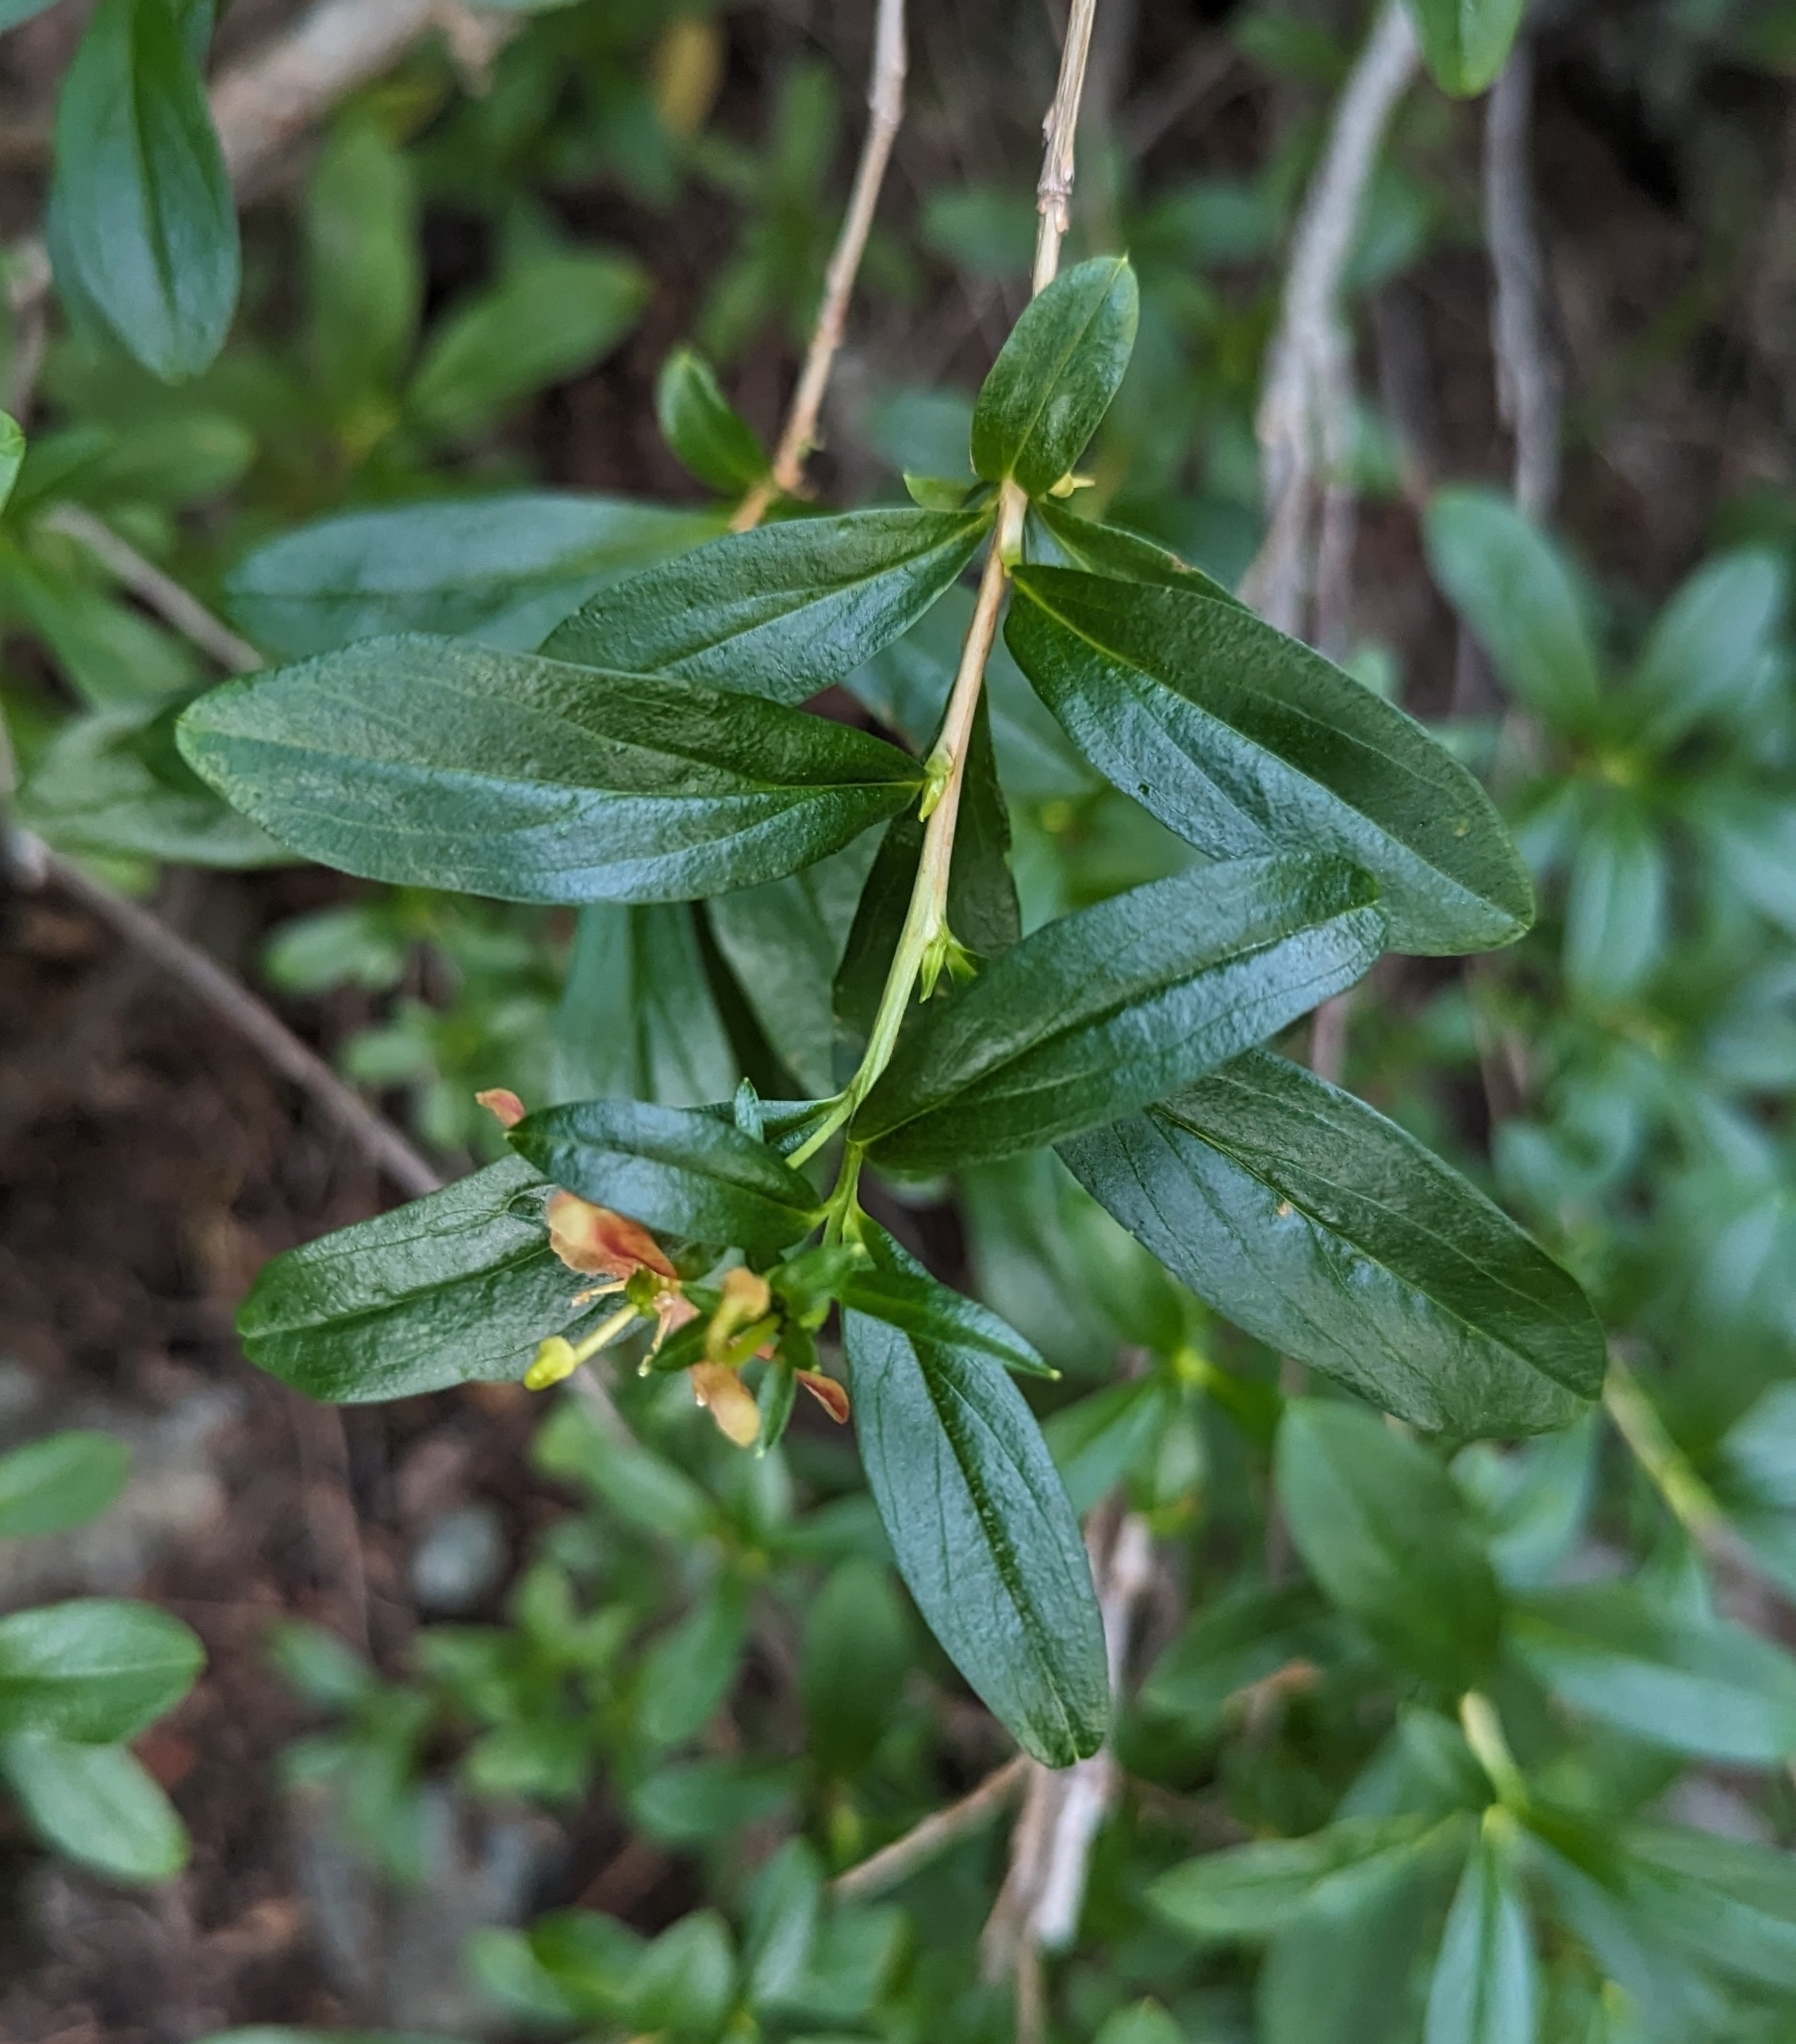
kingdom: Plantae
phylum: Tracheophyta
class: Magnoliopsida
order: Ericales
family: Ericaceae
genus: Elliottia
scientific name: Elliottia pyroliflora
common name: Copperbush
